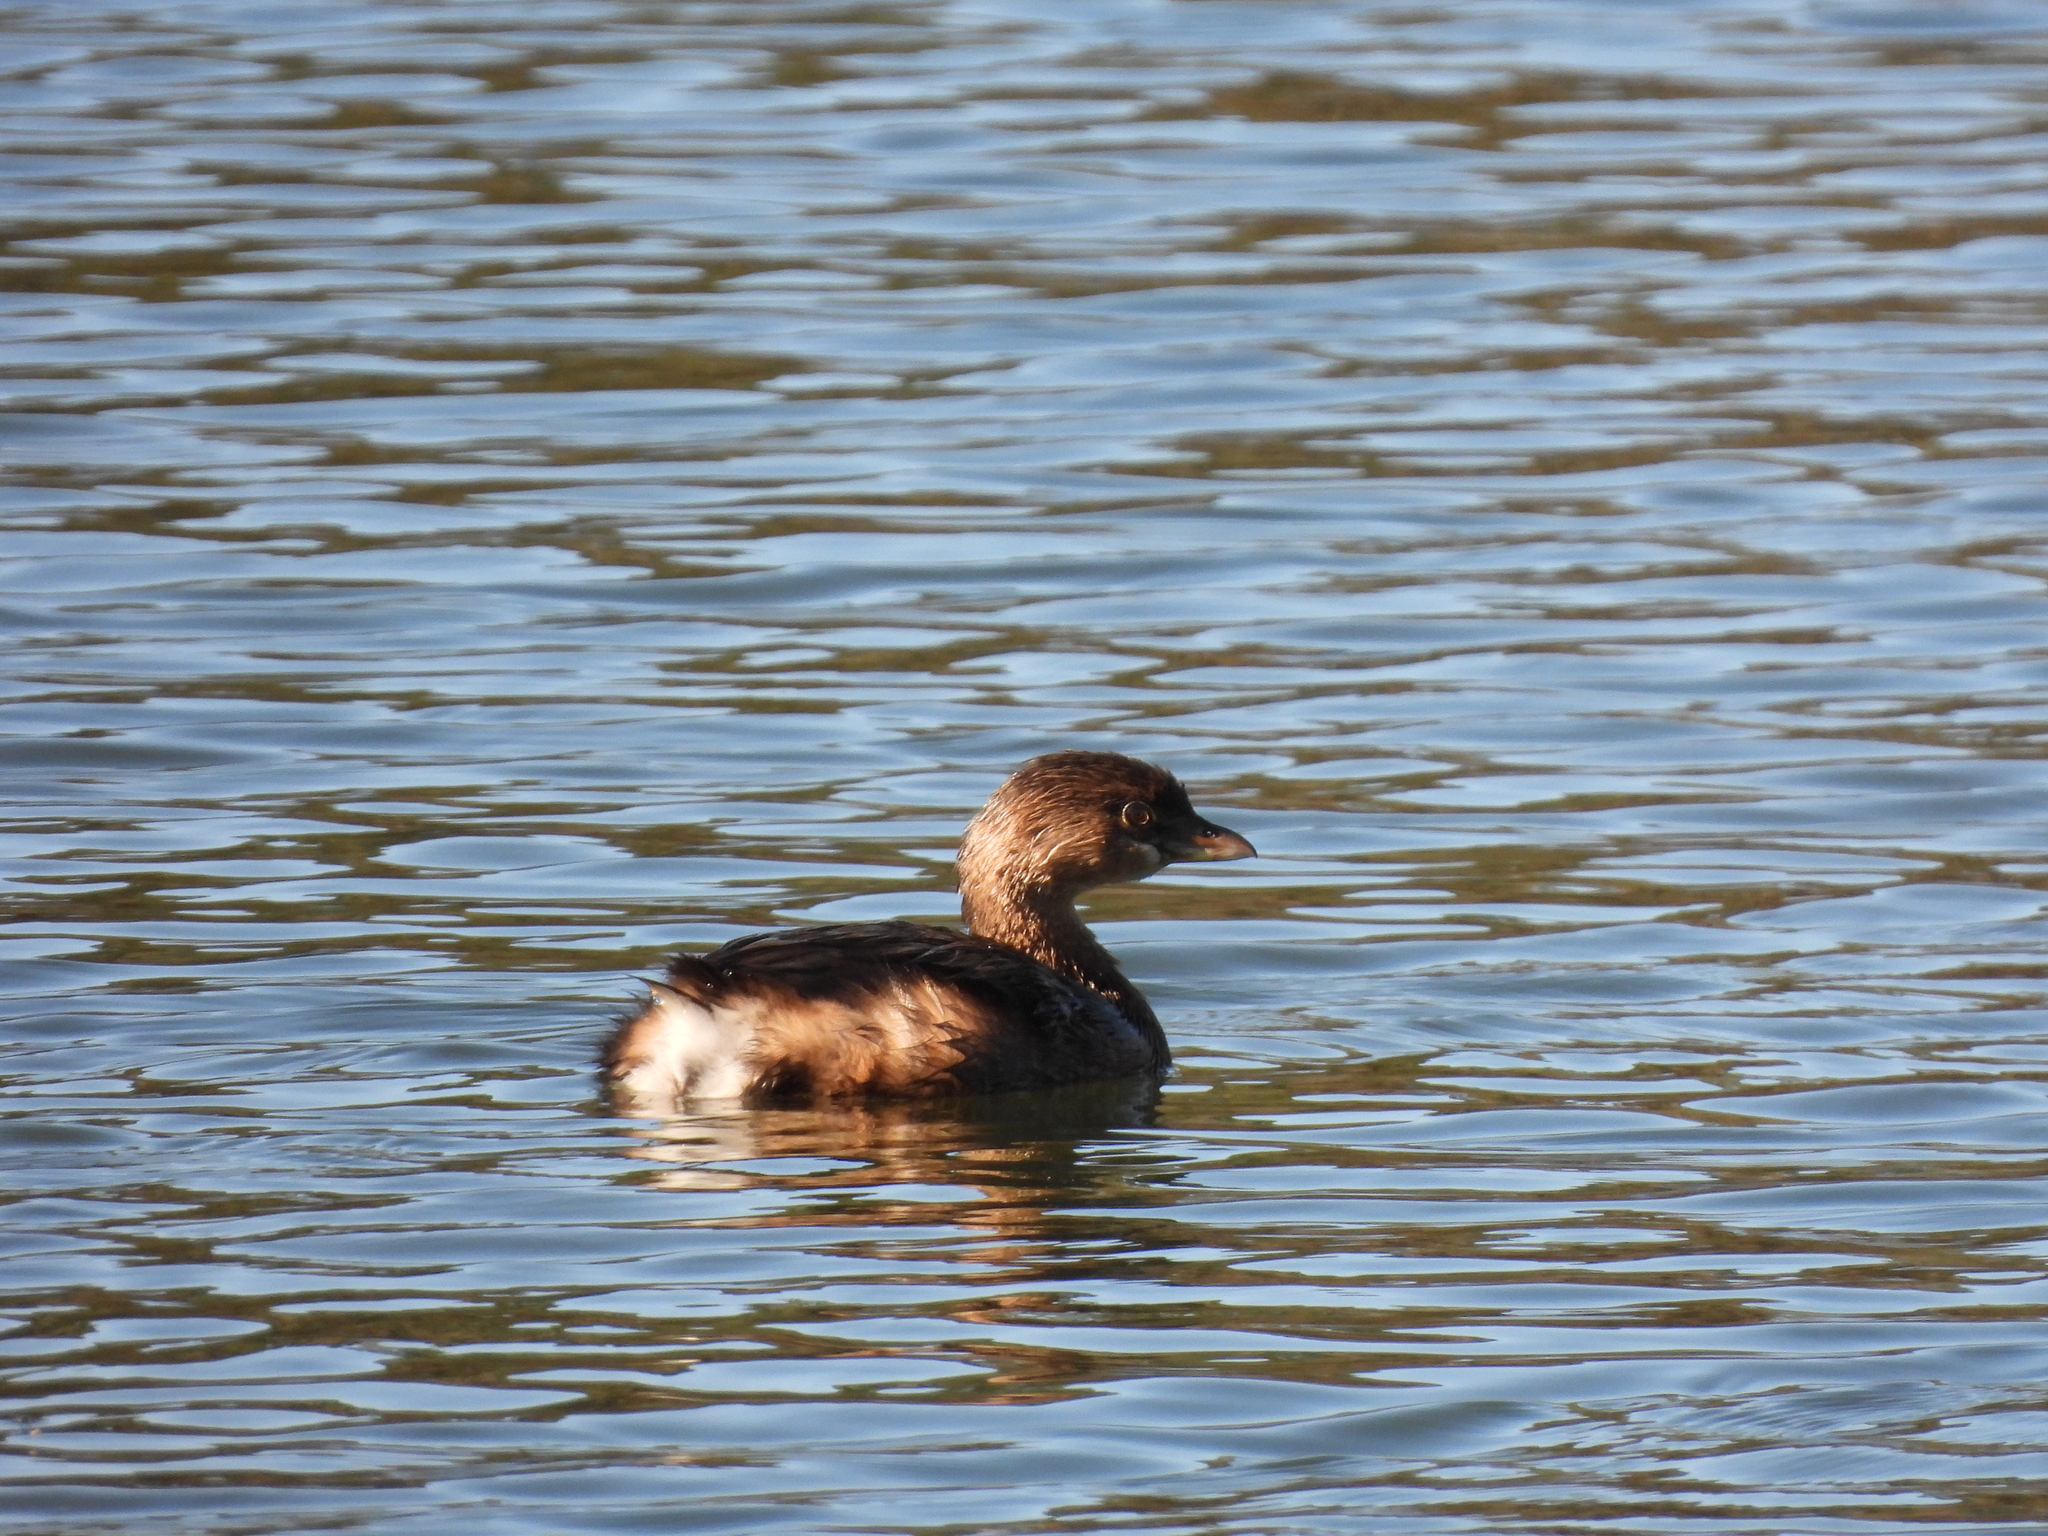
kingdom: Animalia
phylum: Chordata
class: Aves
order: Podicipediformes
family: Podicipedidae
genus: Podilymbus
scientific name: Podilymbus podiceps
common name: Pied-billed grebe
